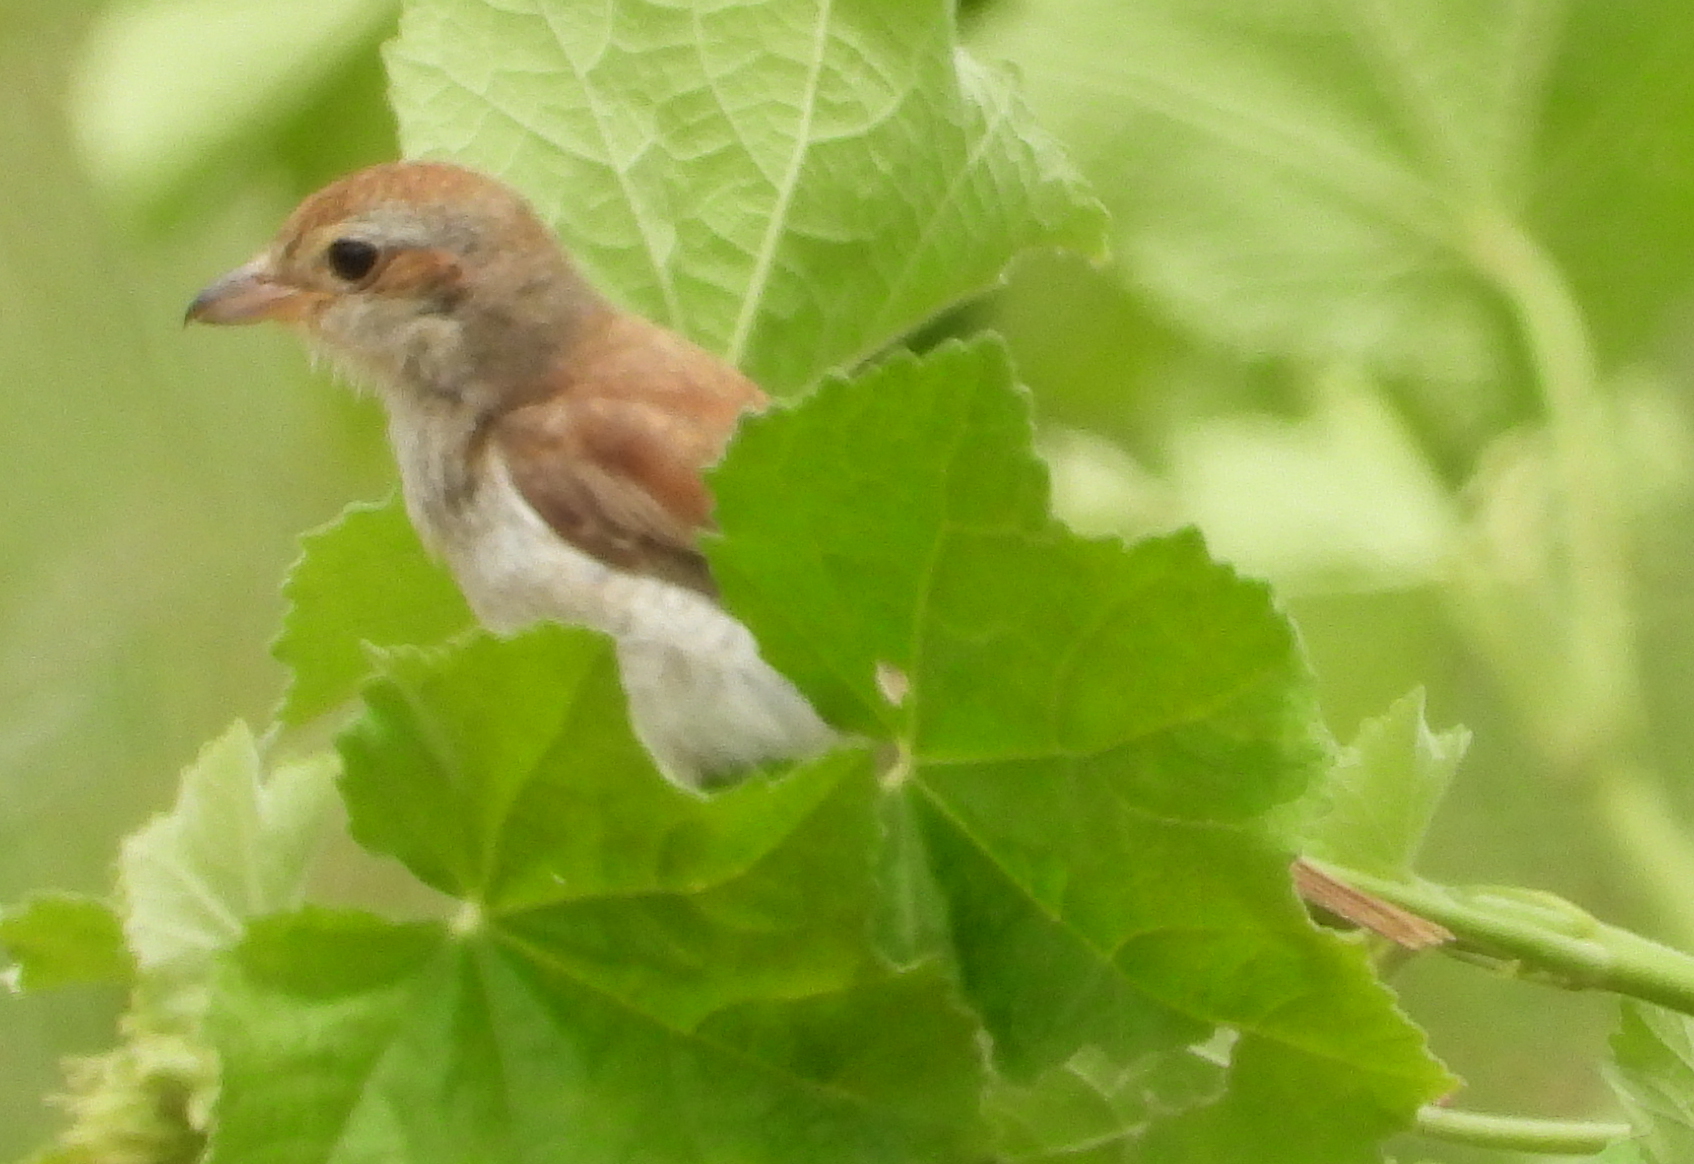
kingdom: Animalia
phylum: Chordata
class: Aves
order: Passeriformes
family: Laniidae
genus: Lanius
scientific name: Lanius collurio
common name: Red-backed shrike
